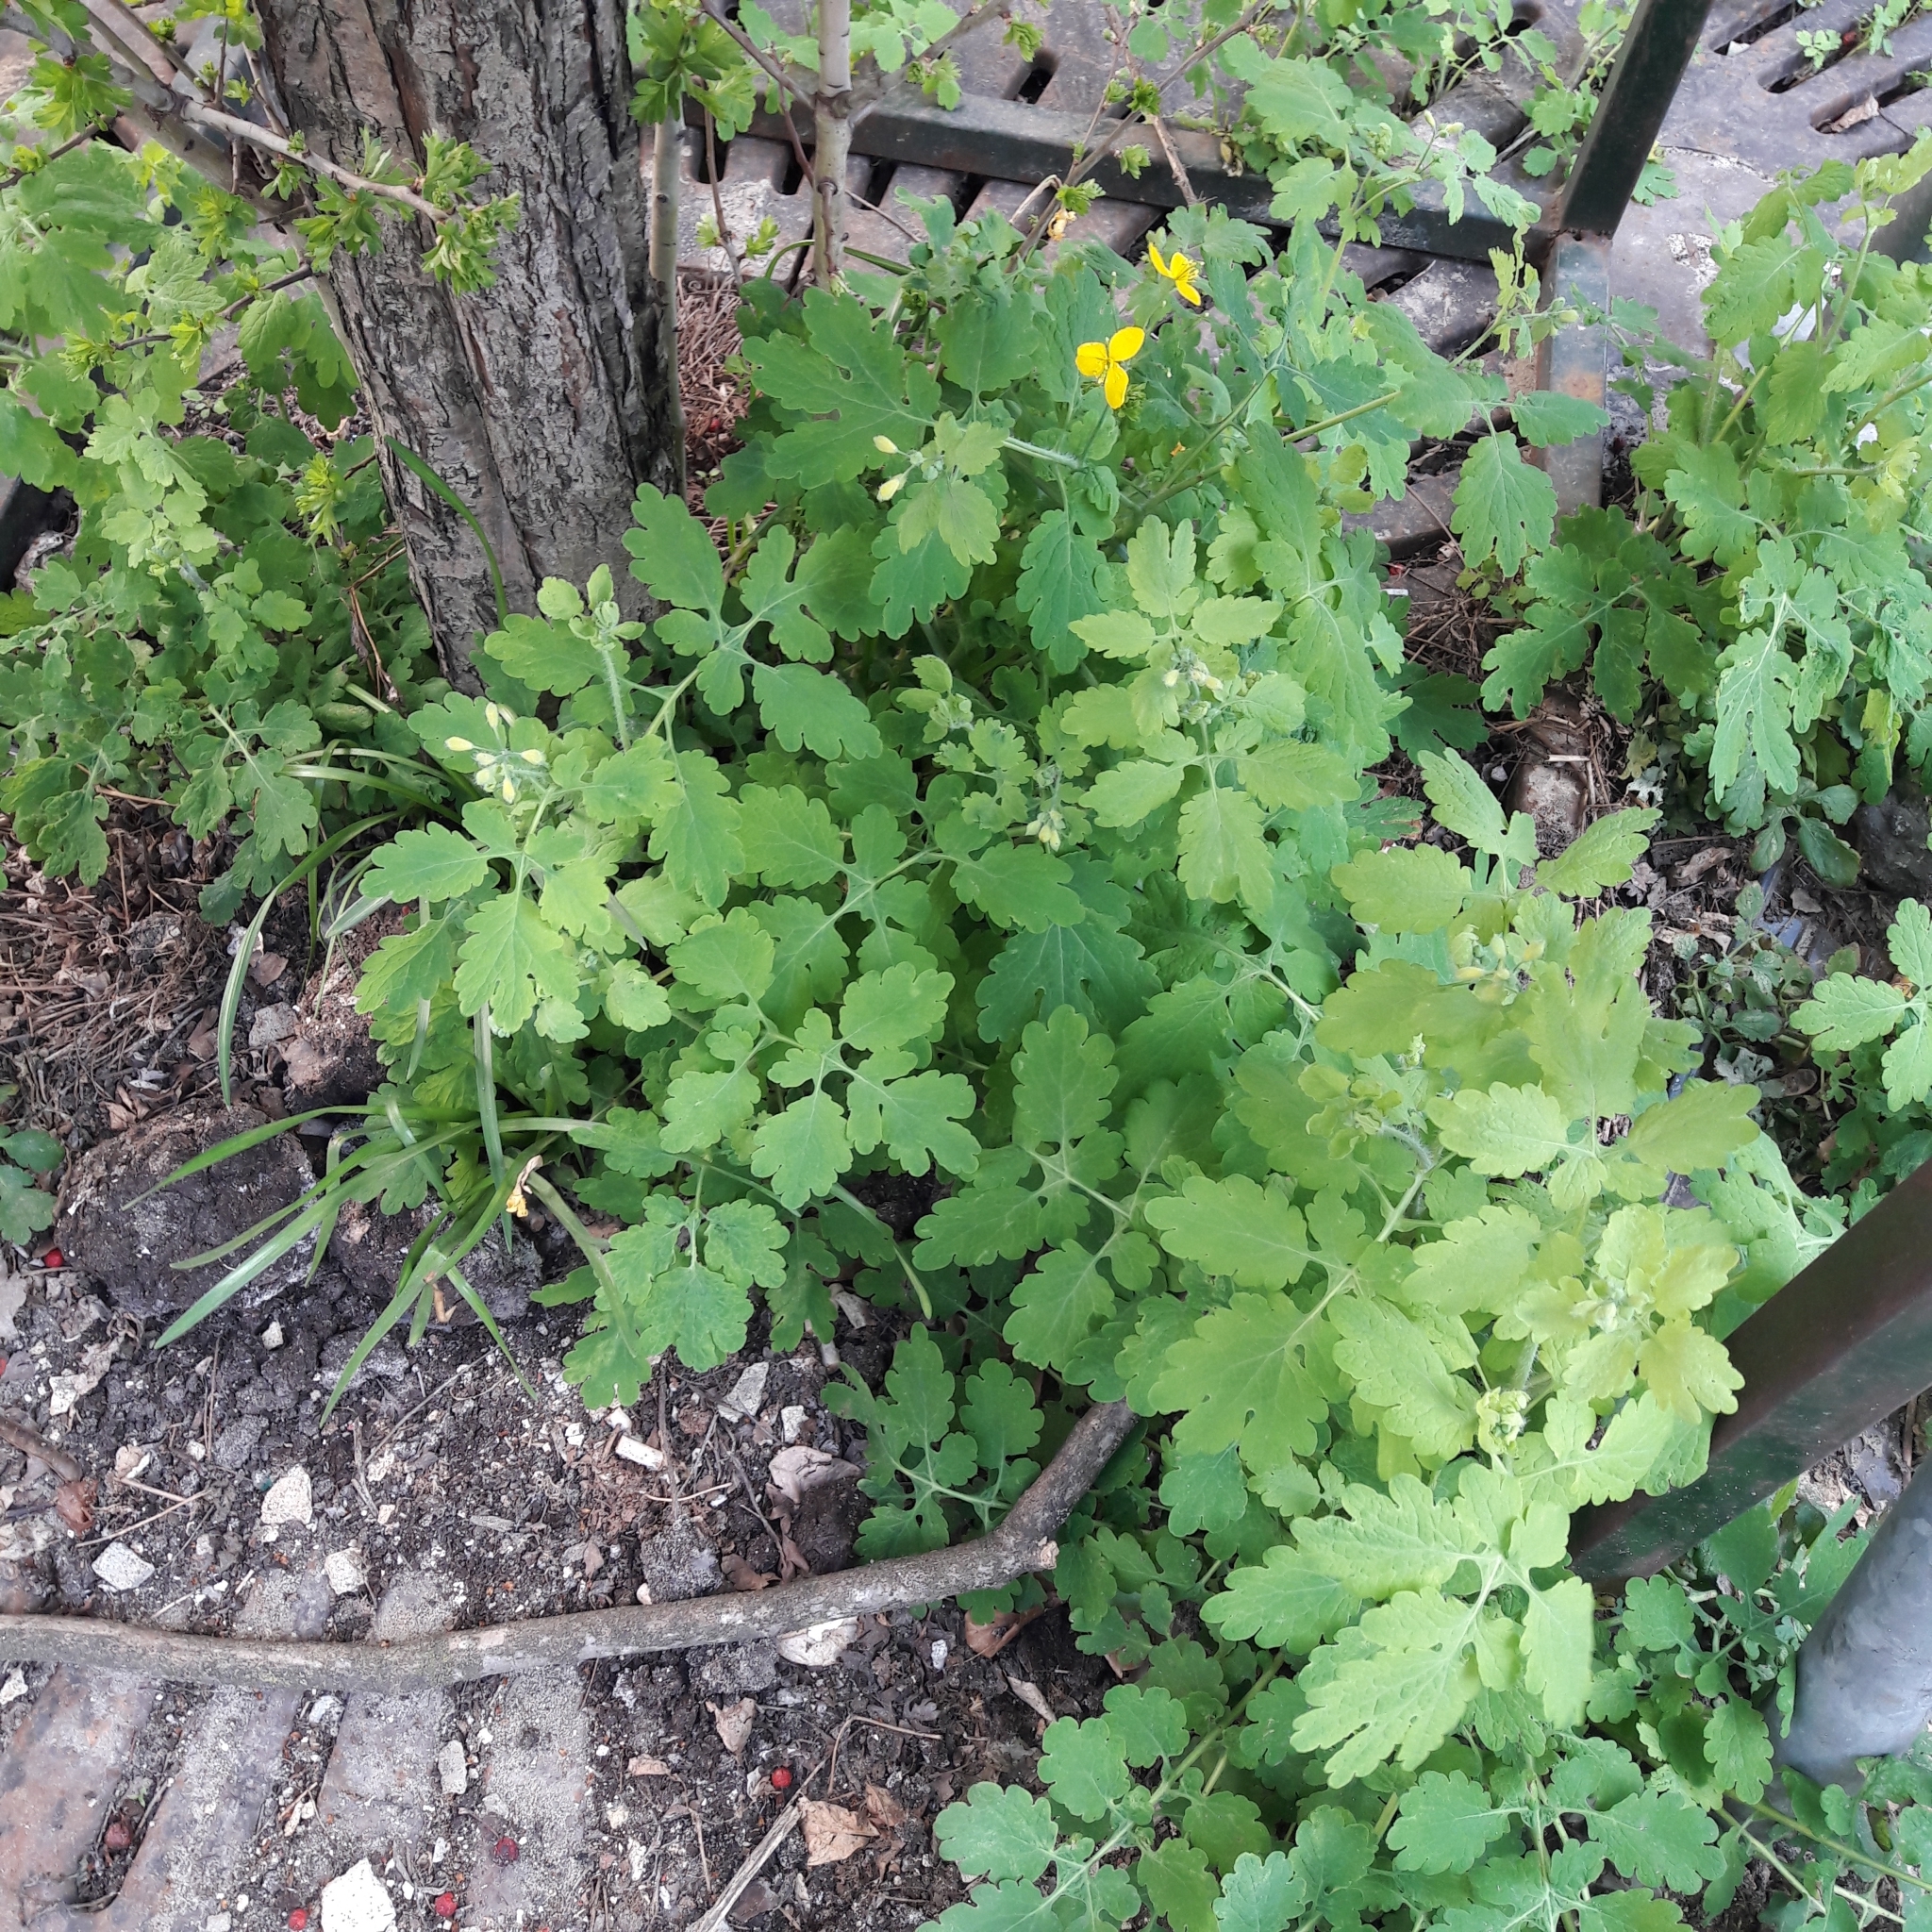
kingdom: Plantae
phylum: Tracheophyta
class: Magnoliopsida
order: Ranunculales
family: Papaveraceae
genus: Chelidonium
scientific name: Chelidonium majus
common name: Greater celandine
